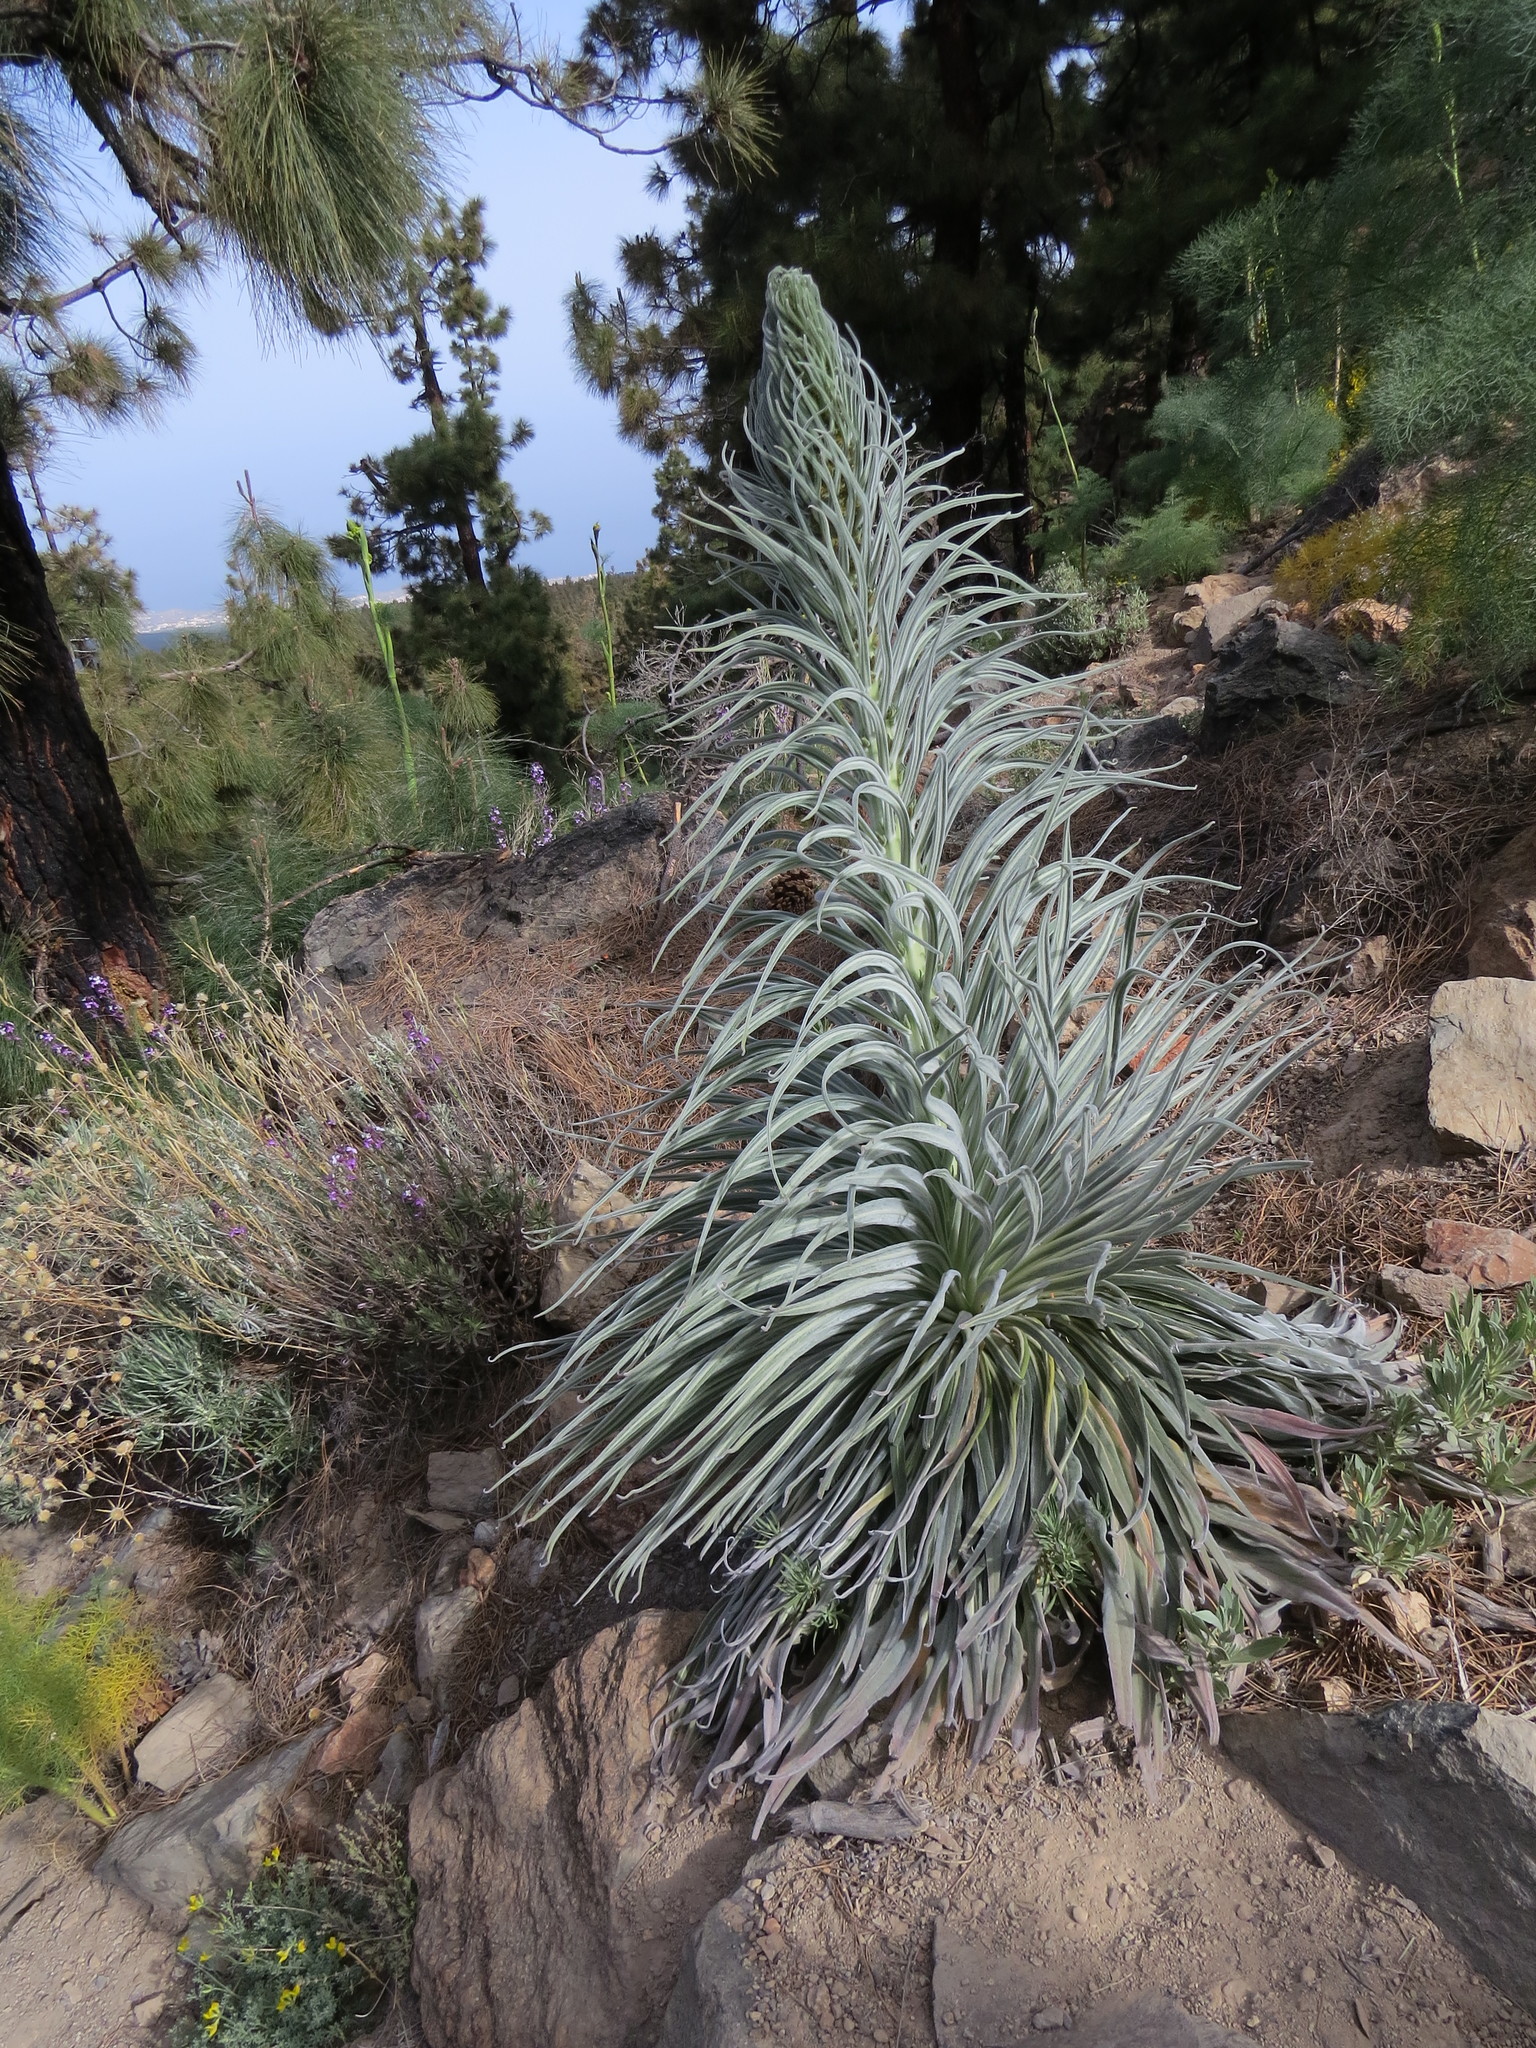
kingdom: Plantae
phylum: Tracheophyta
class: Magnoliopsida
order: Boraginales
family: Boraginaceae
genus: Echium
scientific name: Echium wildpretii
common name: Tower-of-jewels
